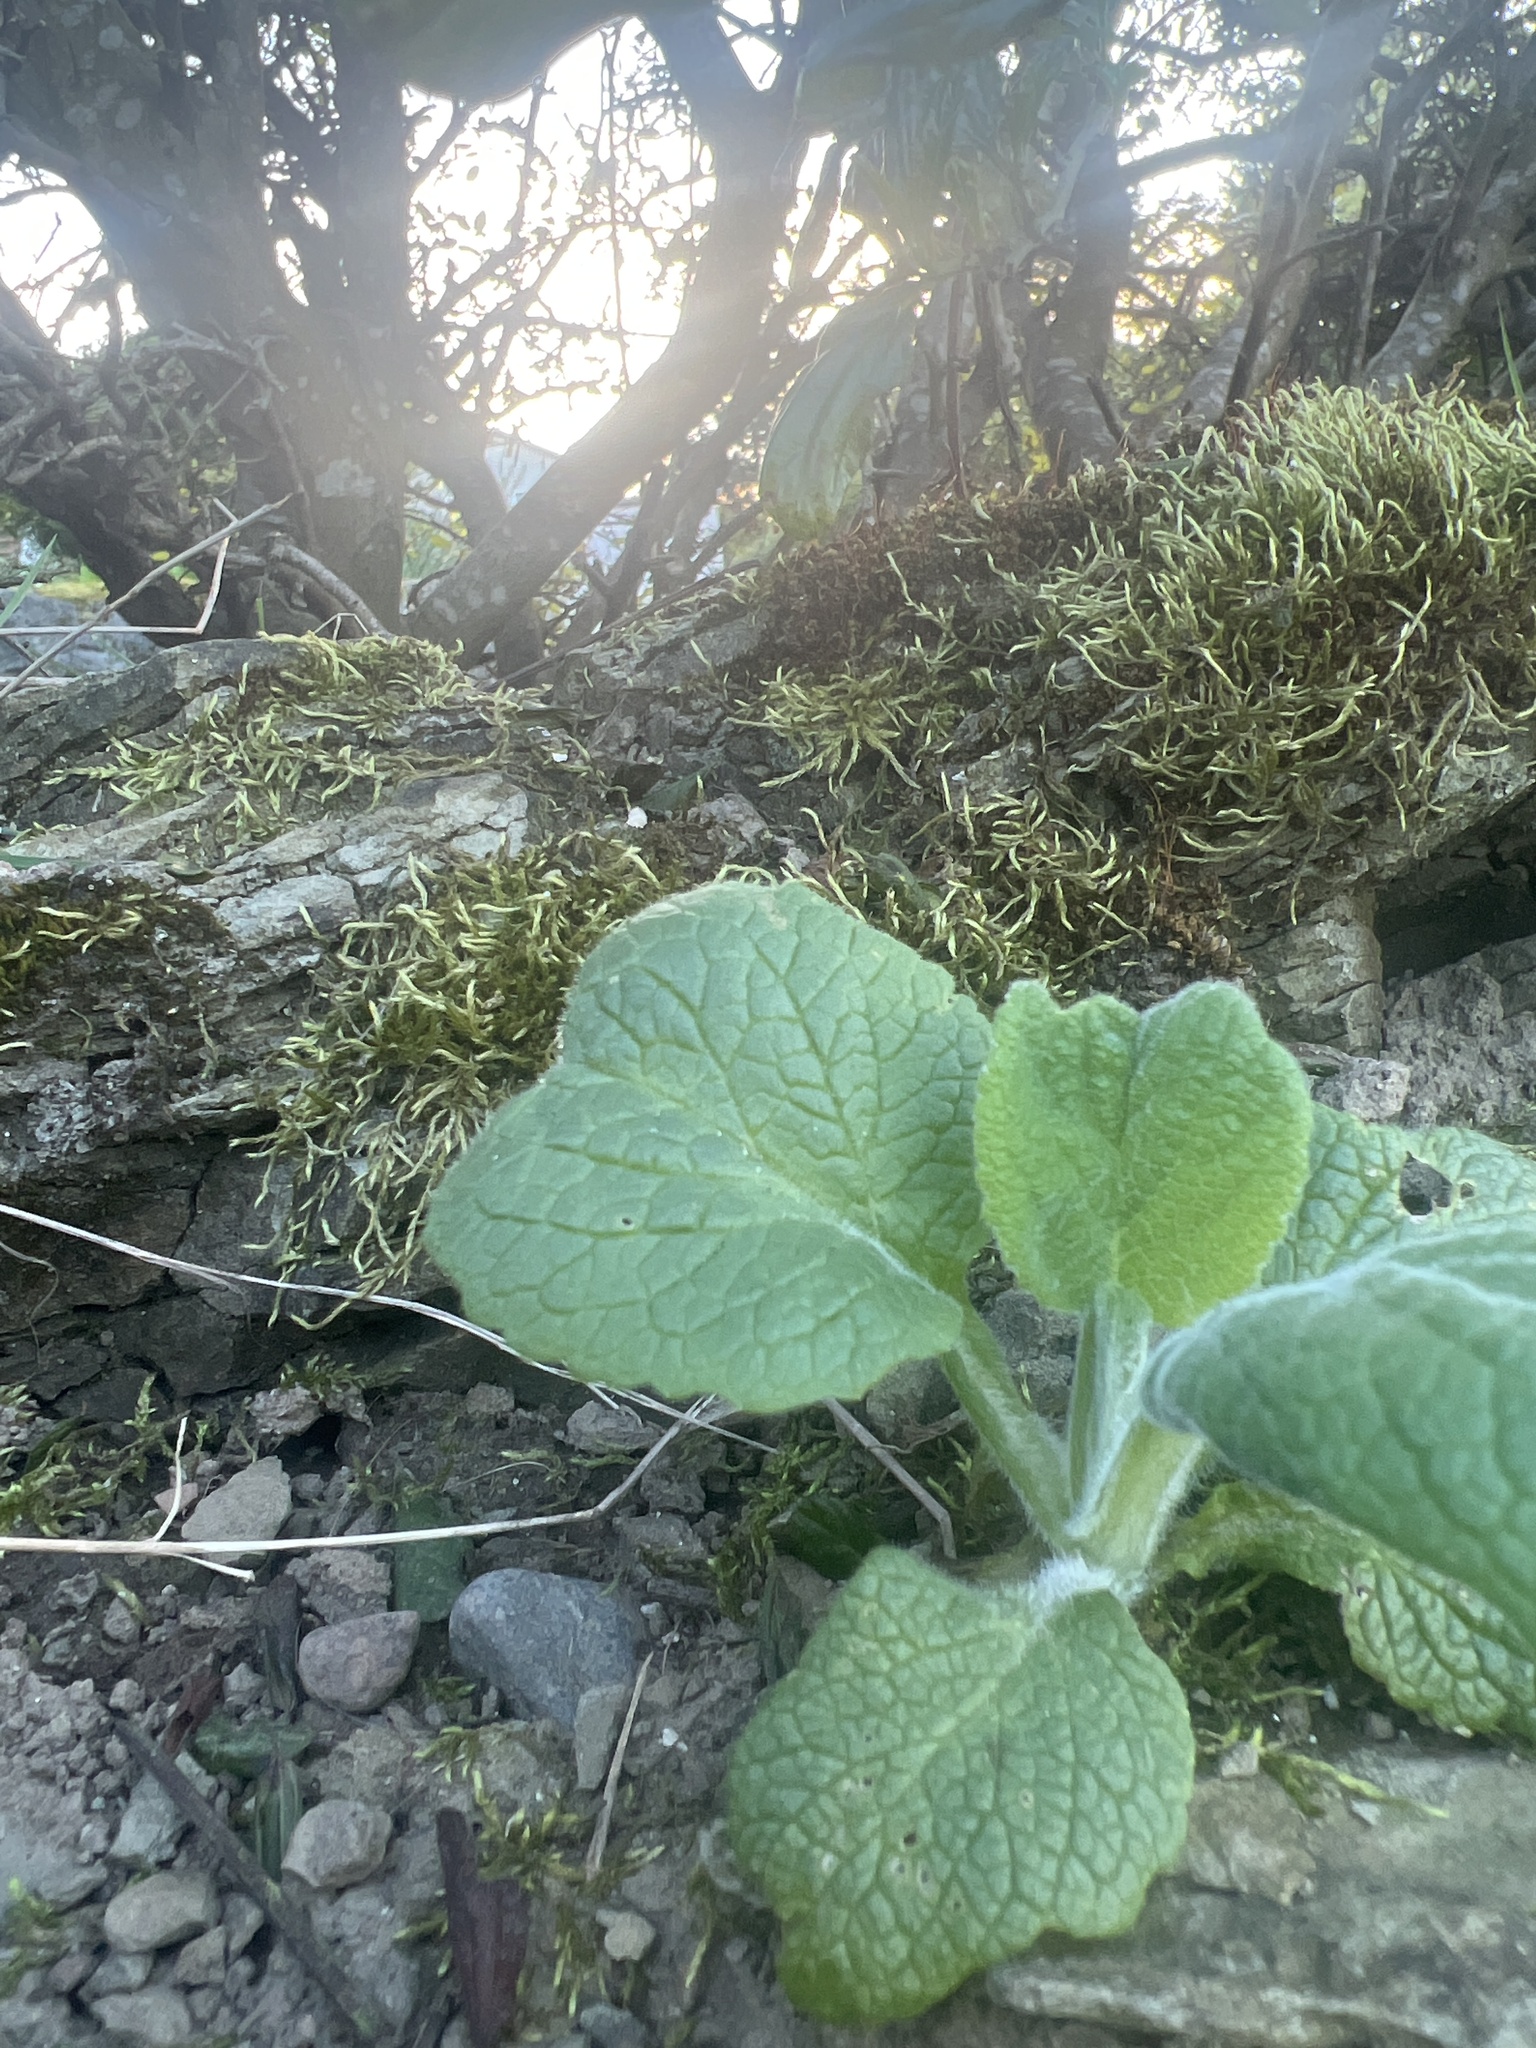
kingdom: Plantae
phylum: Tracheophyta
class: Magnoliopsida
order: Lamiales
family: Plantaginaceae
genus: Digitalis
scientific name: Digitalis purpurea
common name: Foxglove
